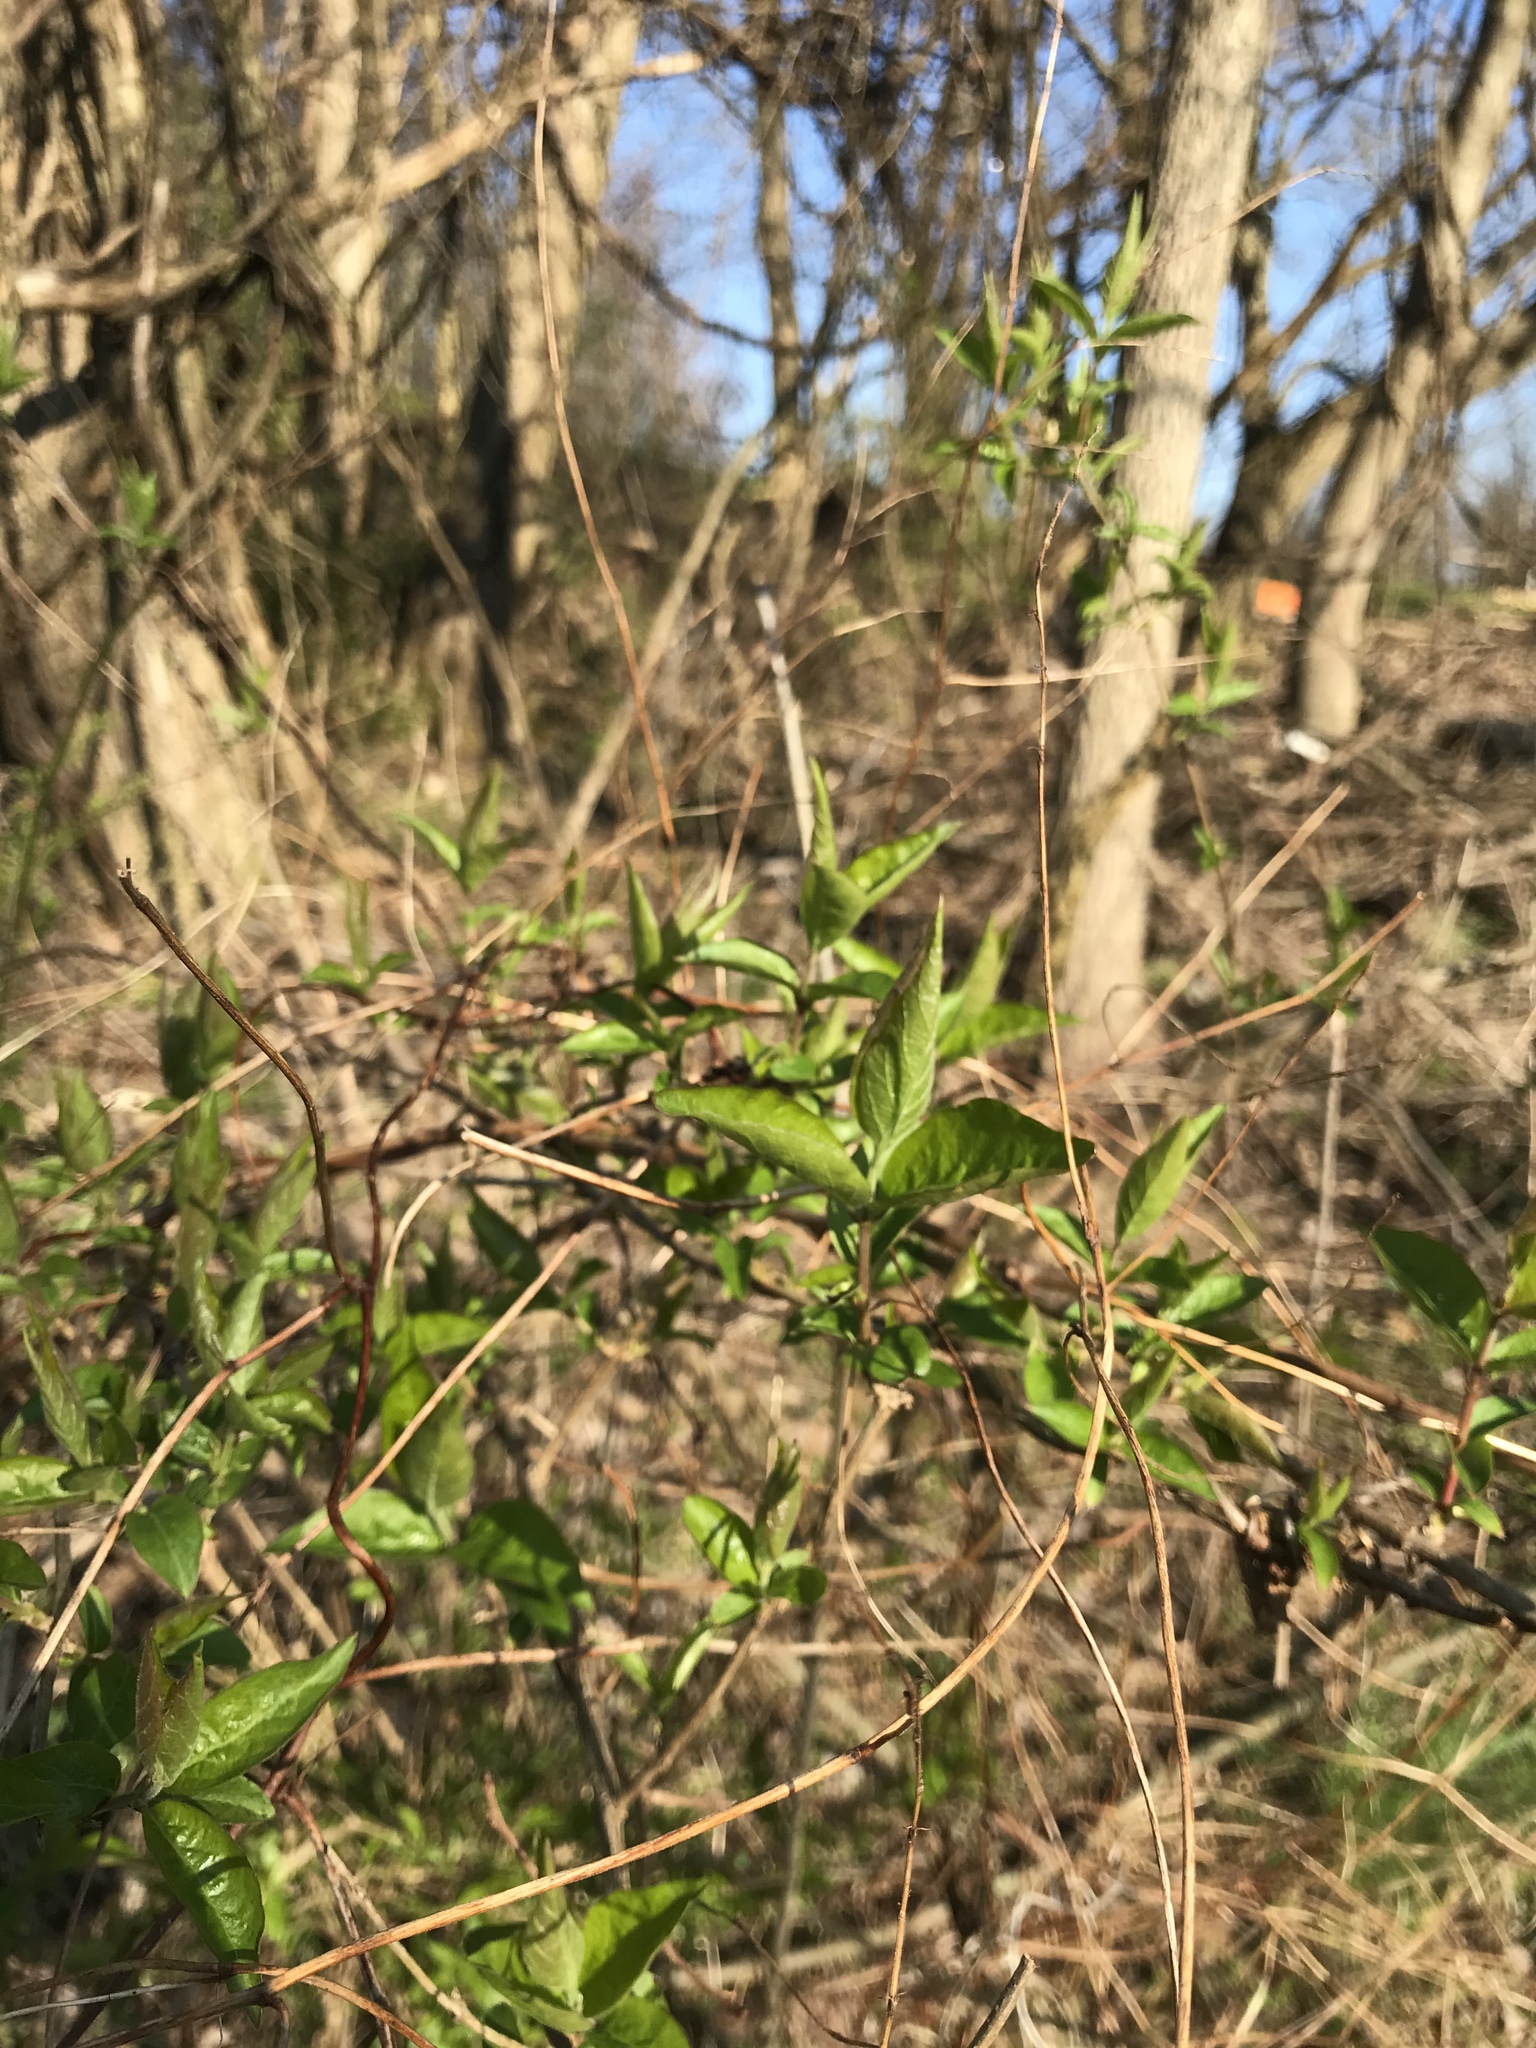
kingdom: Plantae
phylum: Tracheophyta
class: Magnoliopsida
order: Dipsacales
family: Caprifoliaceae
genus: Lonicera
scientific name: Lonicera maackii
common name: Amur honeysuckle
